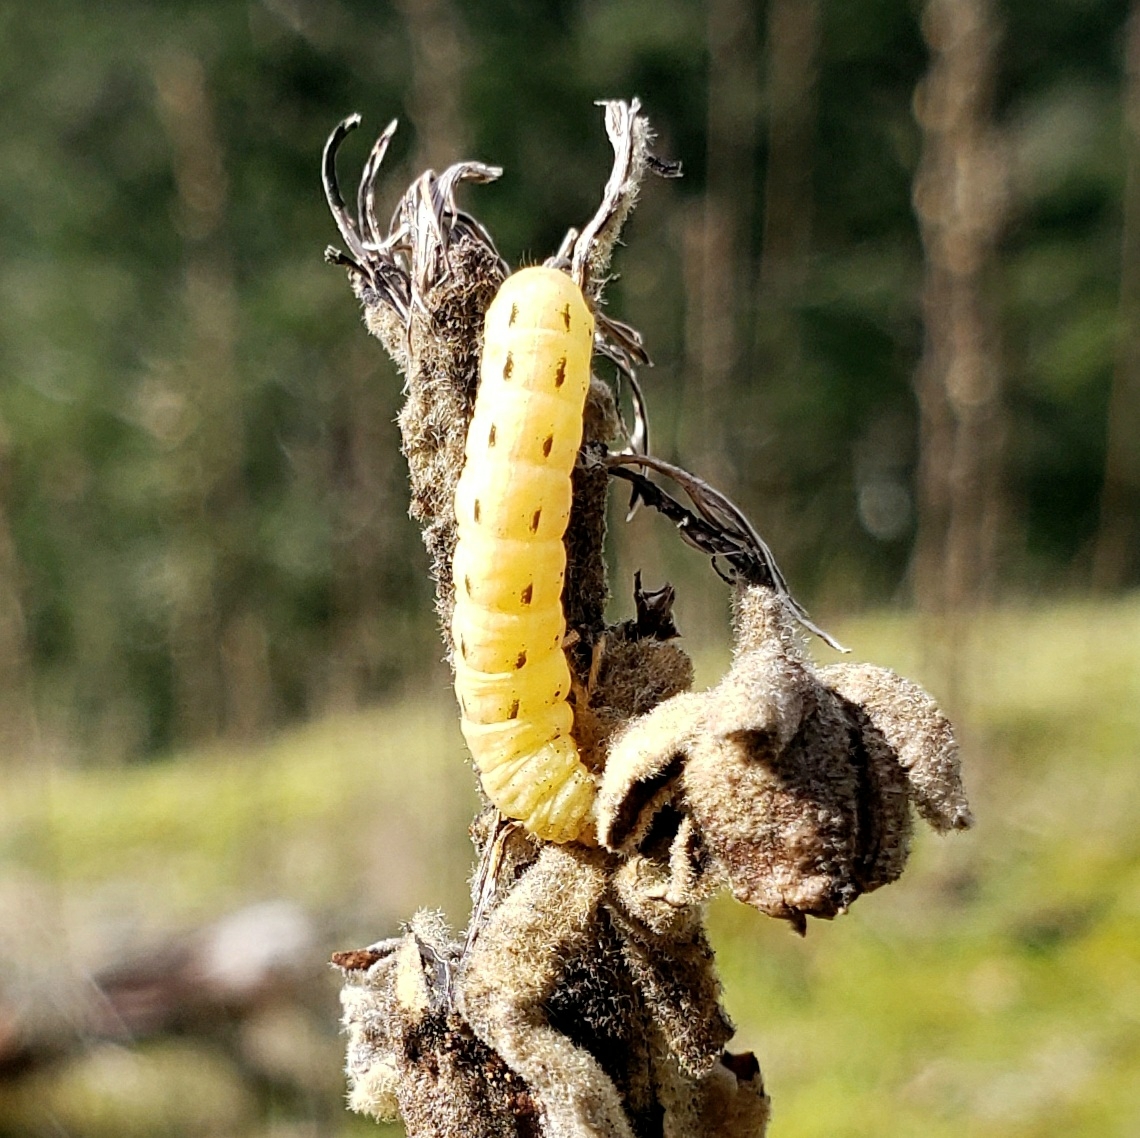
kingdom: Animalia
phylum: Arthropoda
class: Insecta
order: Lepidoptera
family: Noctuidae
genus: Noctua
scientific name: Noctua pronuba
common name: Large yellow underwing
